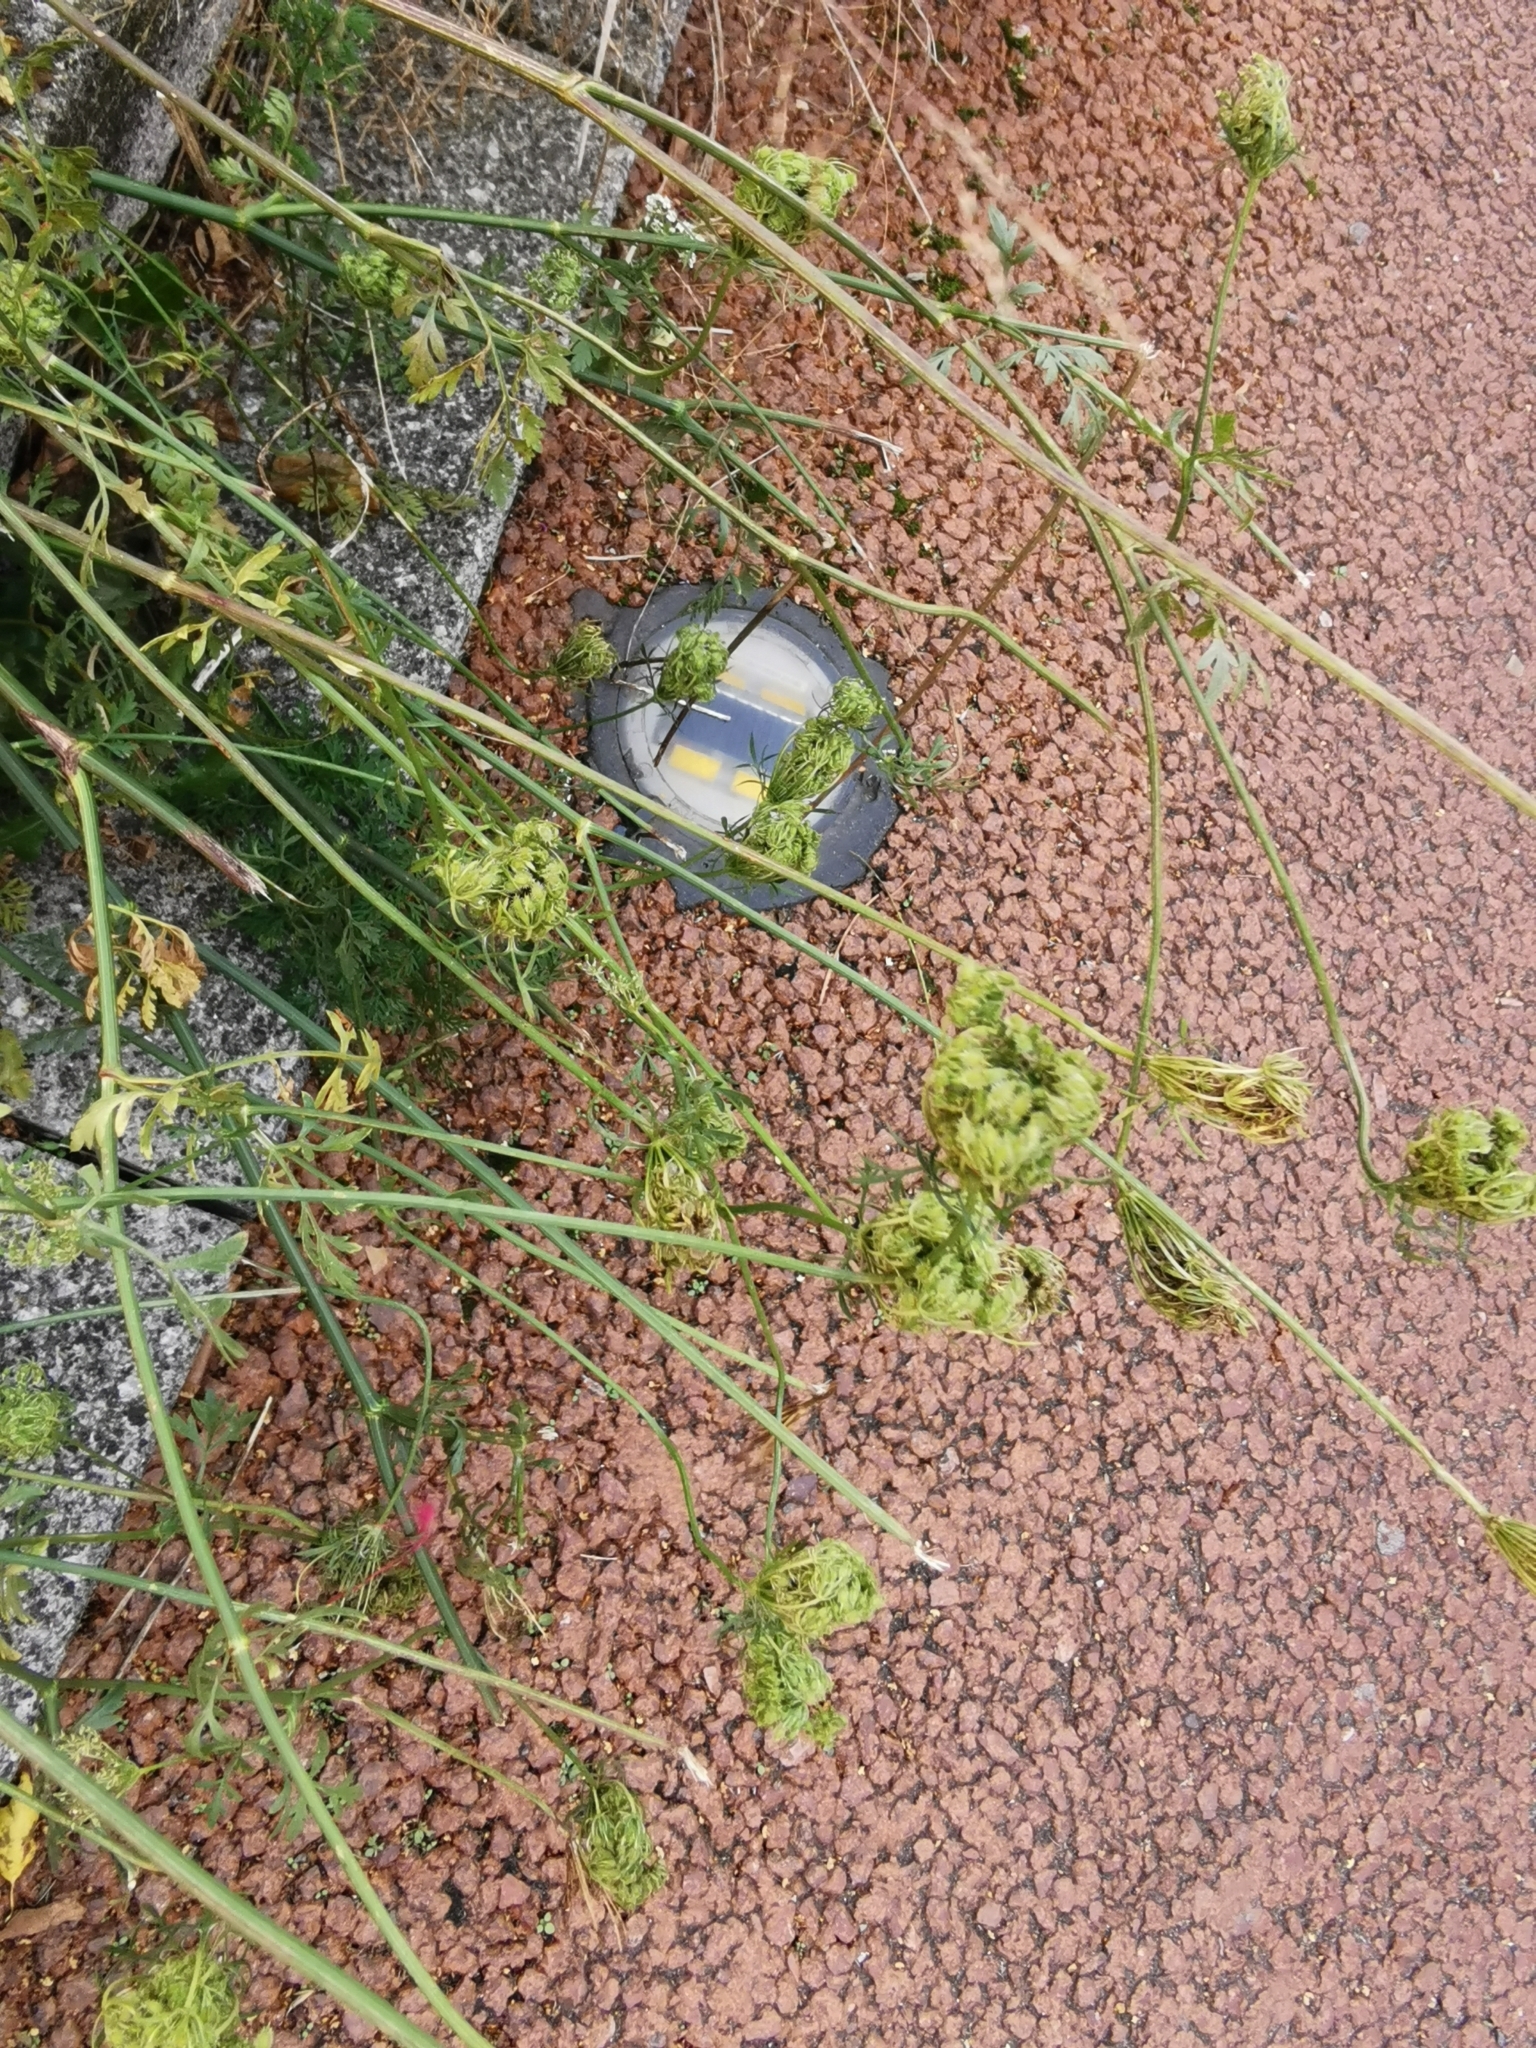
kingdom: Plantae
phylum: Tracheophyta
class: Magnoliopsida
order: Apiales
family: Apiaceae
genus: Daucus
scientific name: Daucus carota
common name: Wild carrot
